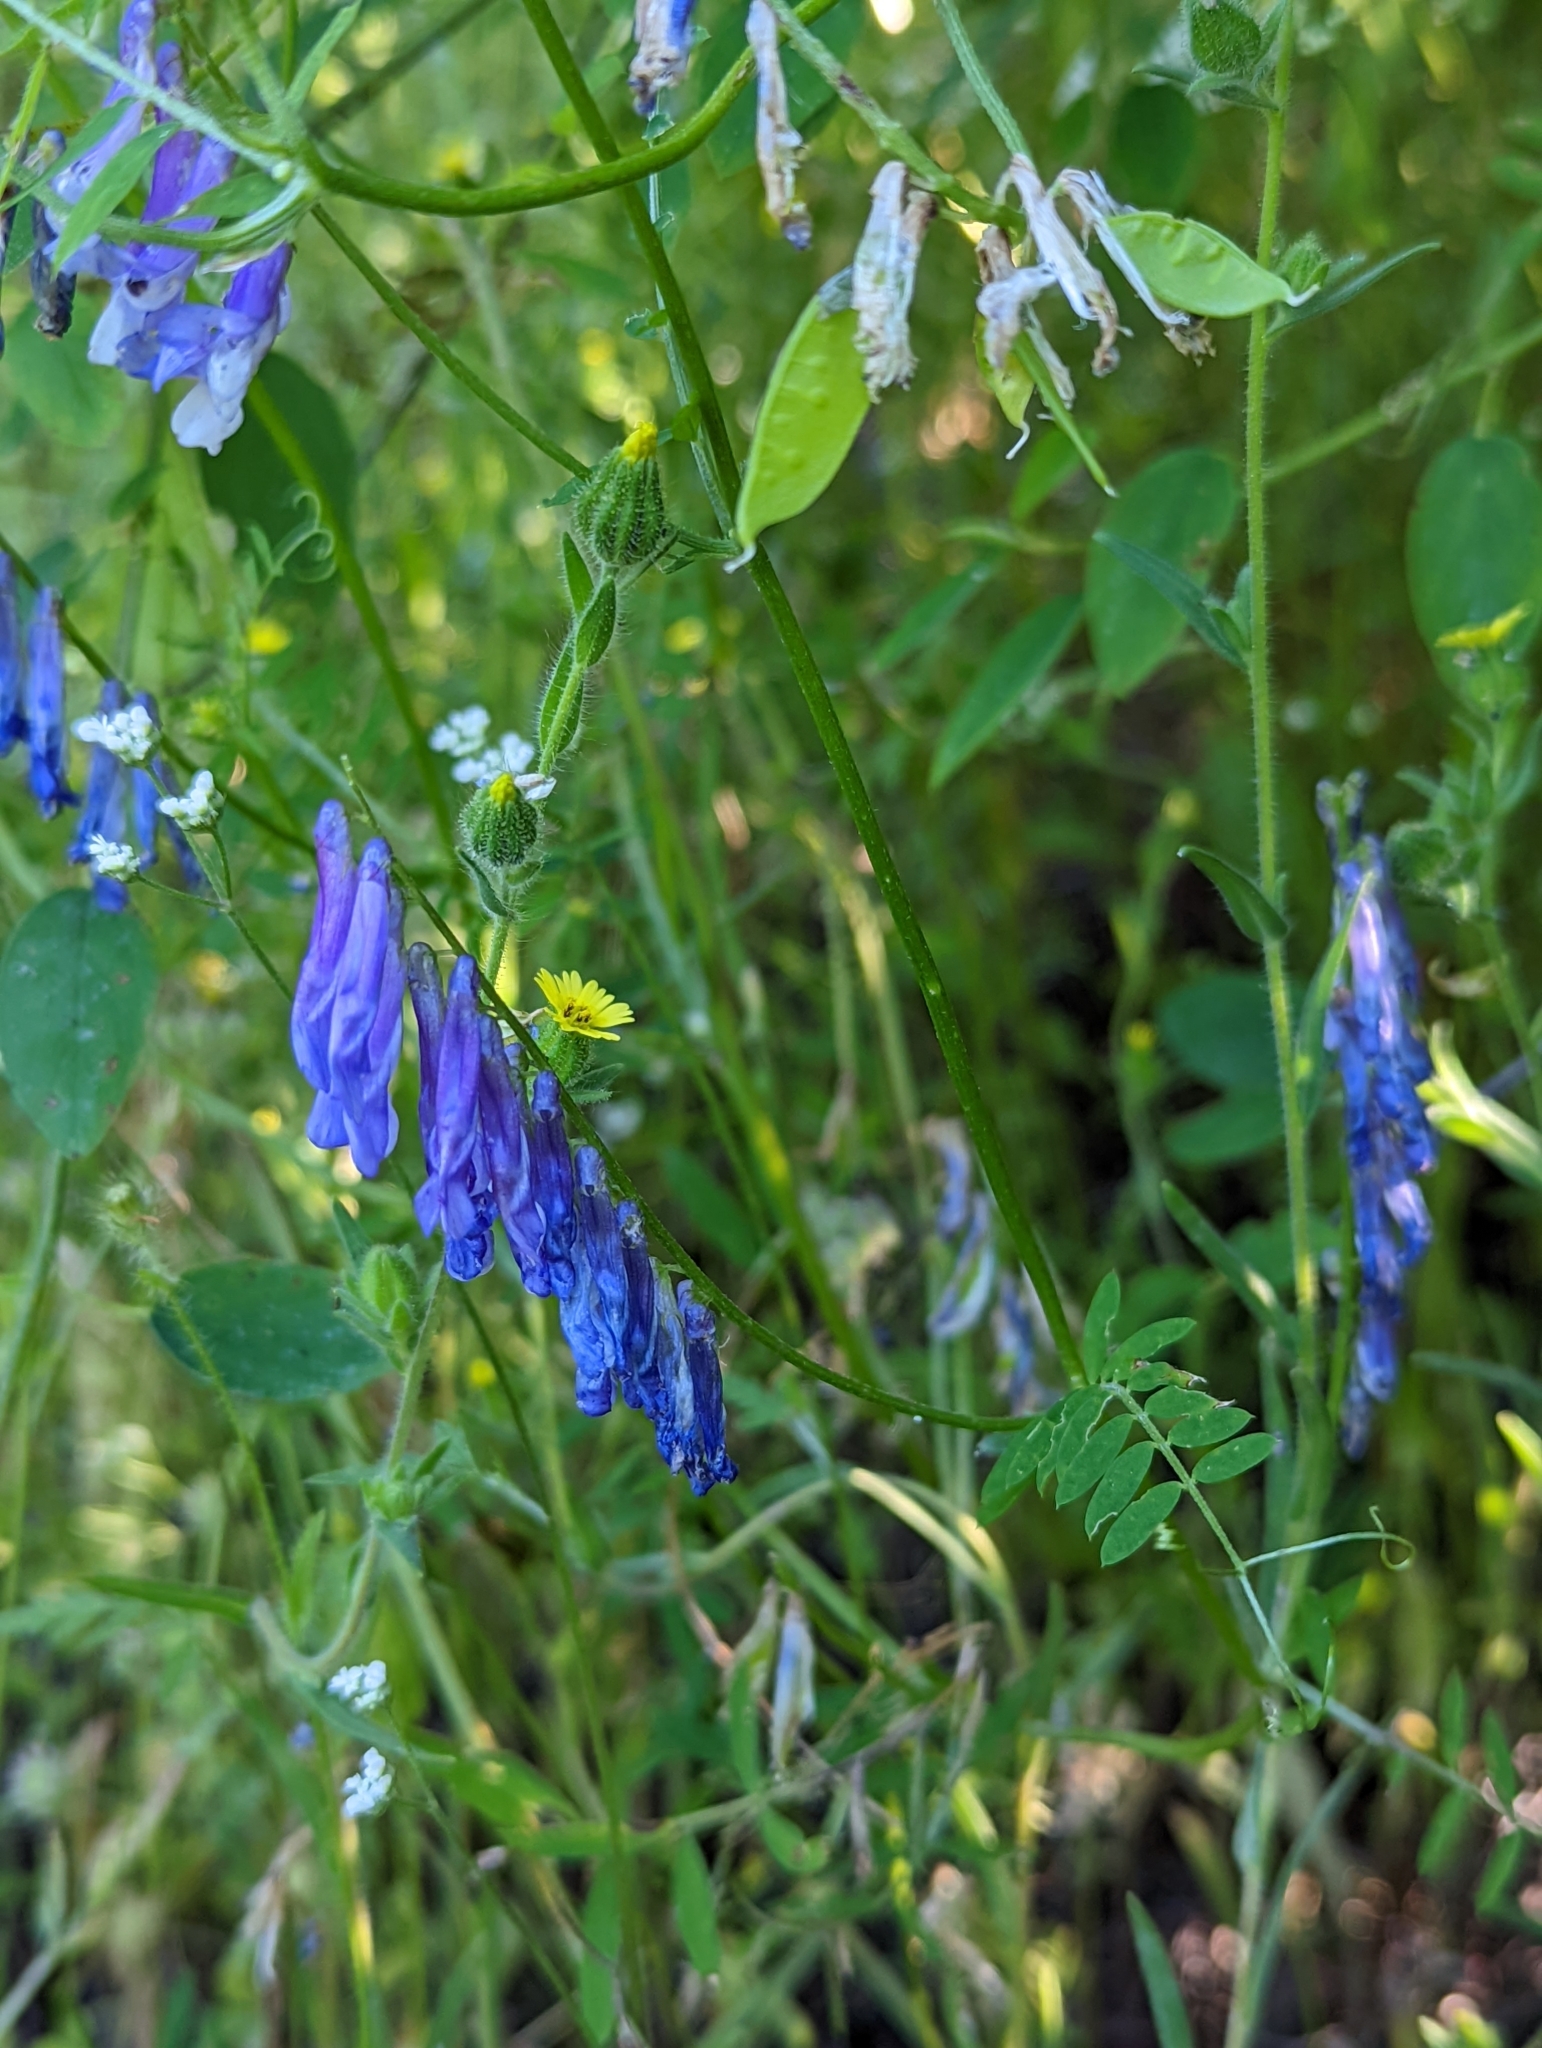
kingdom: Plantae
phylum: Tracheophyta
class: Magnoliopsida
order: Fabales
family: Fabaceae
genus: Vicia
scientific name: Vicia villosa
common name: Fodder vetch
